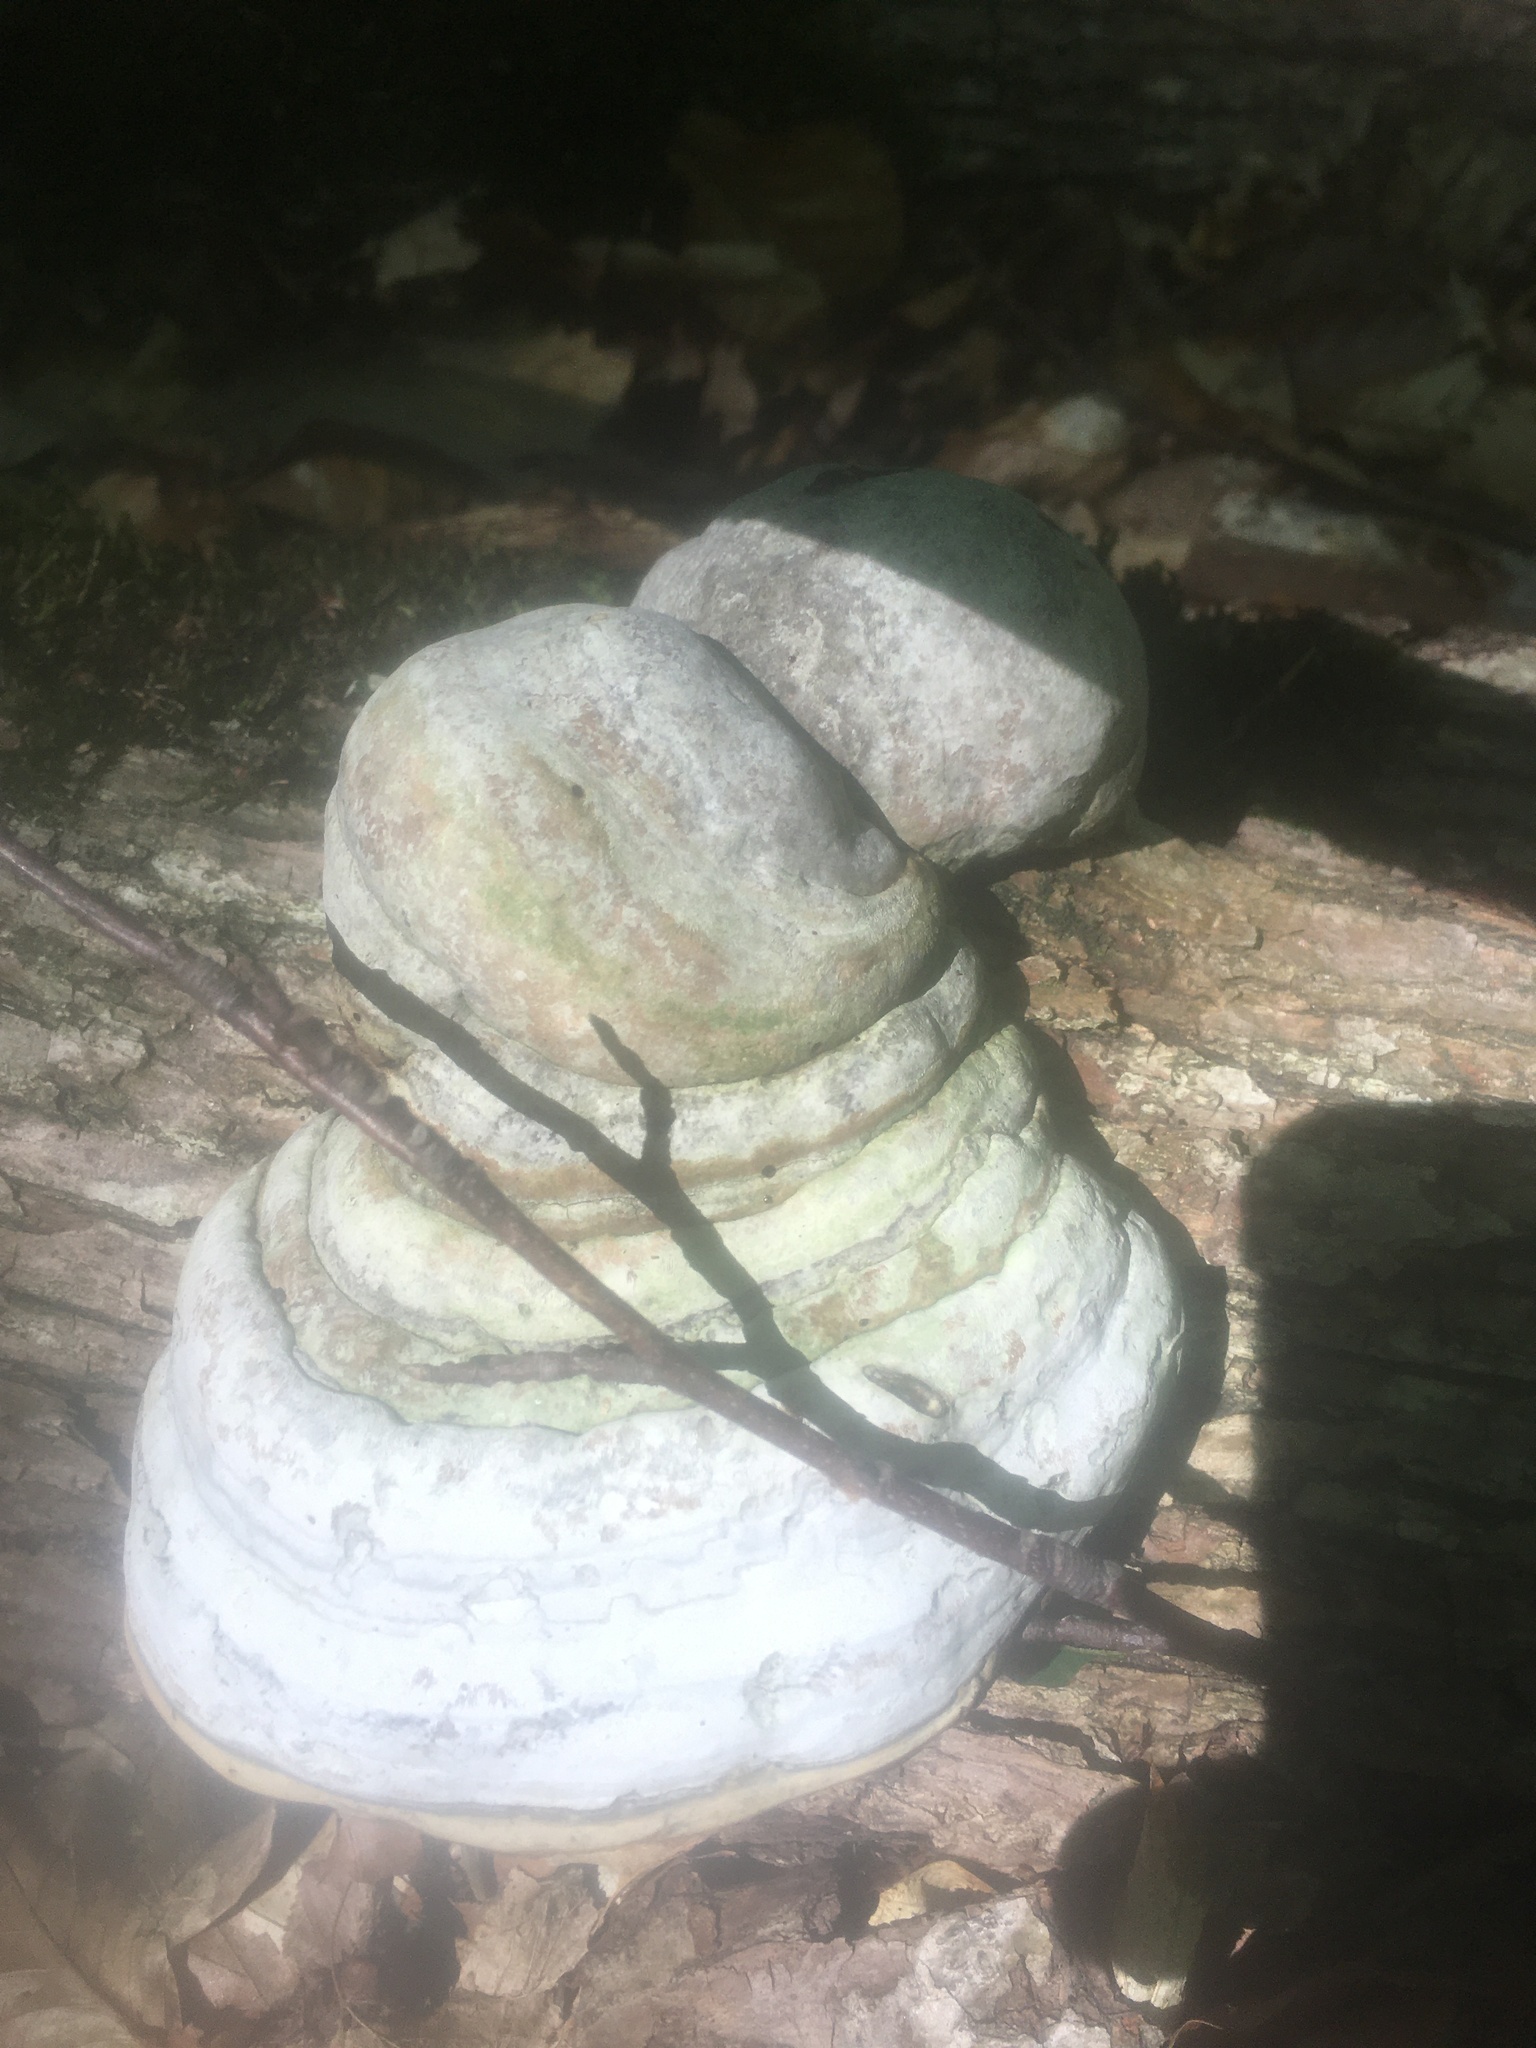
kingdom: Fungi
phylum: Basidiomycota
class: Agaricomycetes
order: Polyporales
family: Polyporaceae
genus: Fomes
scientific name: Fomes fomentarius
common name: Hoof fungus
